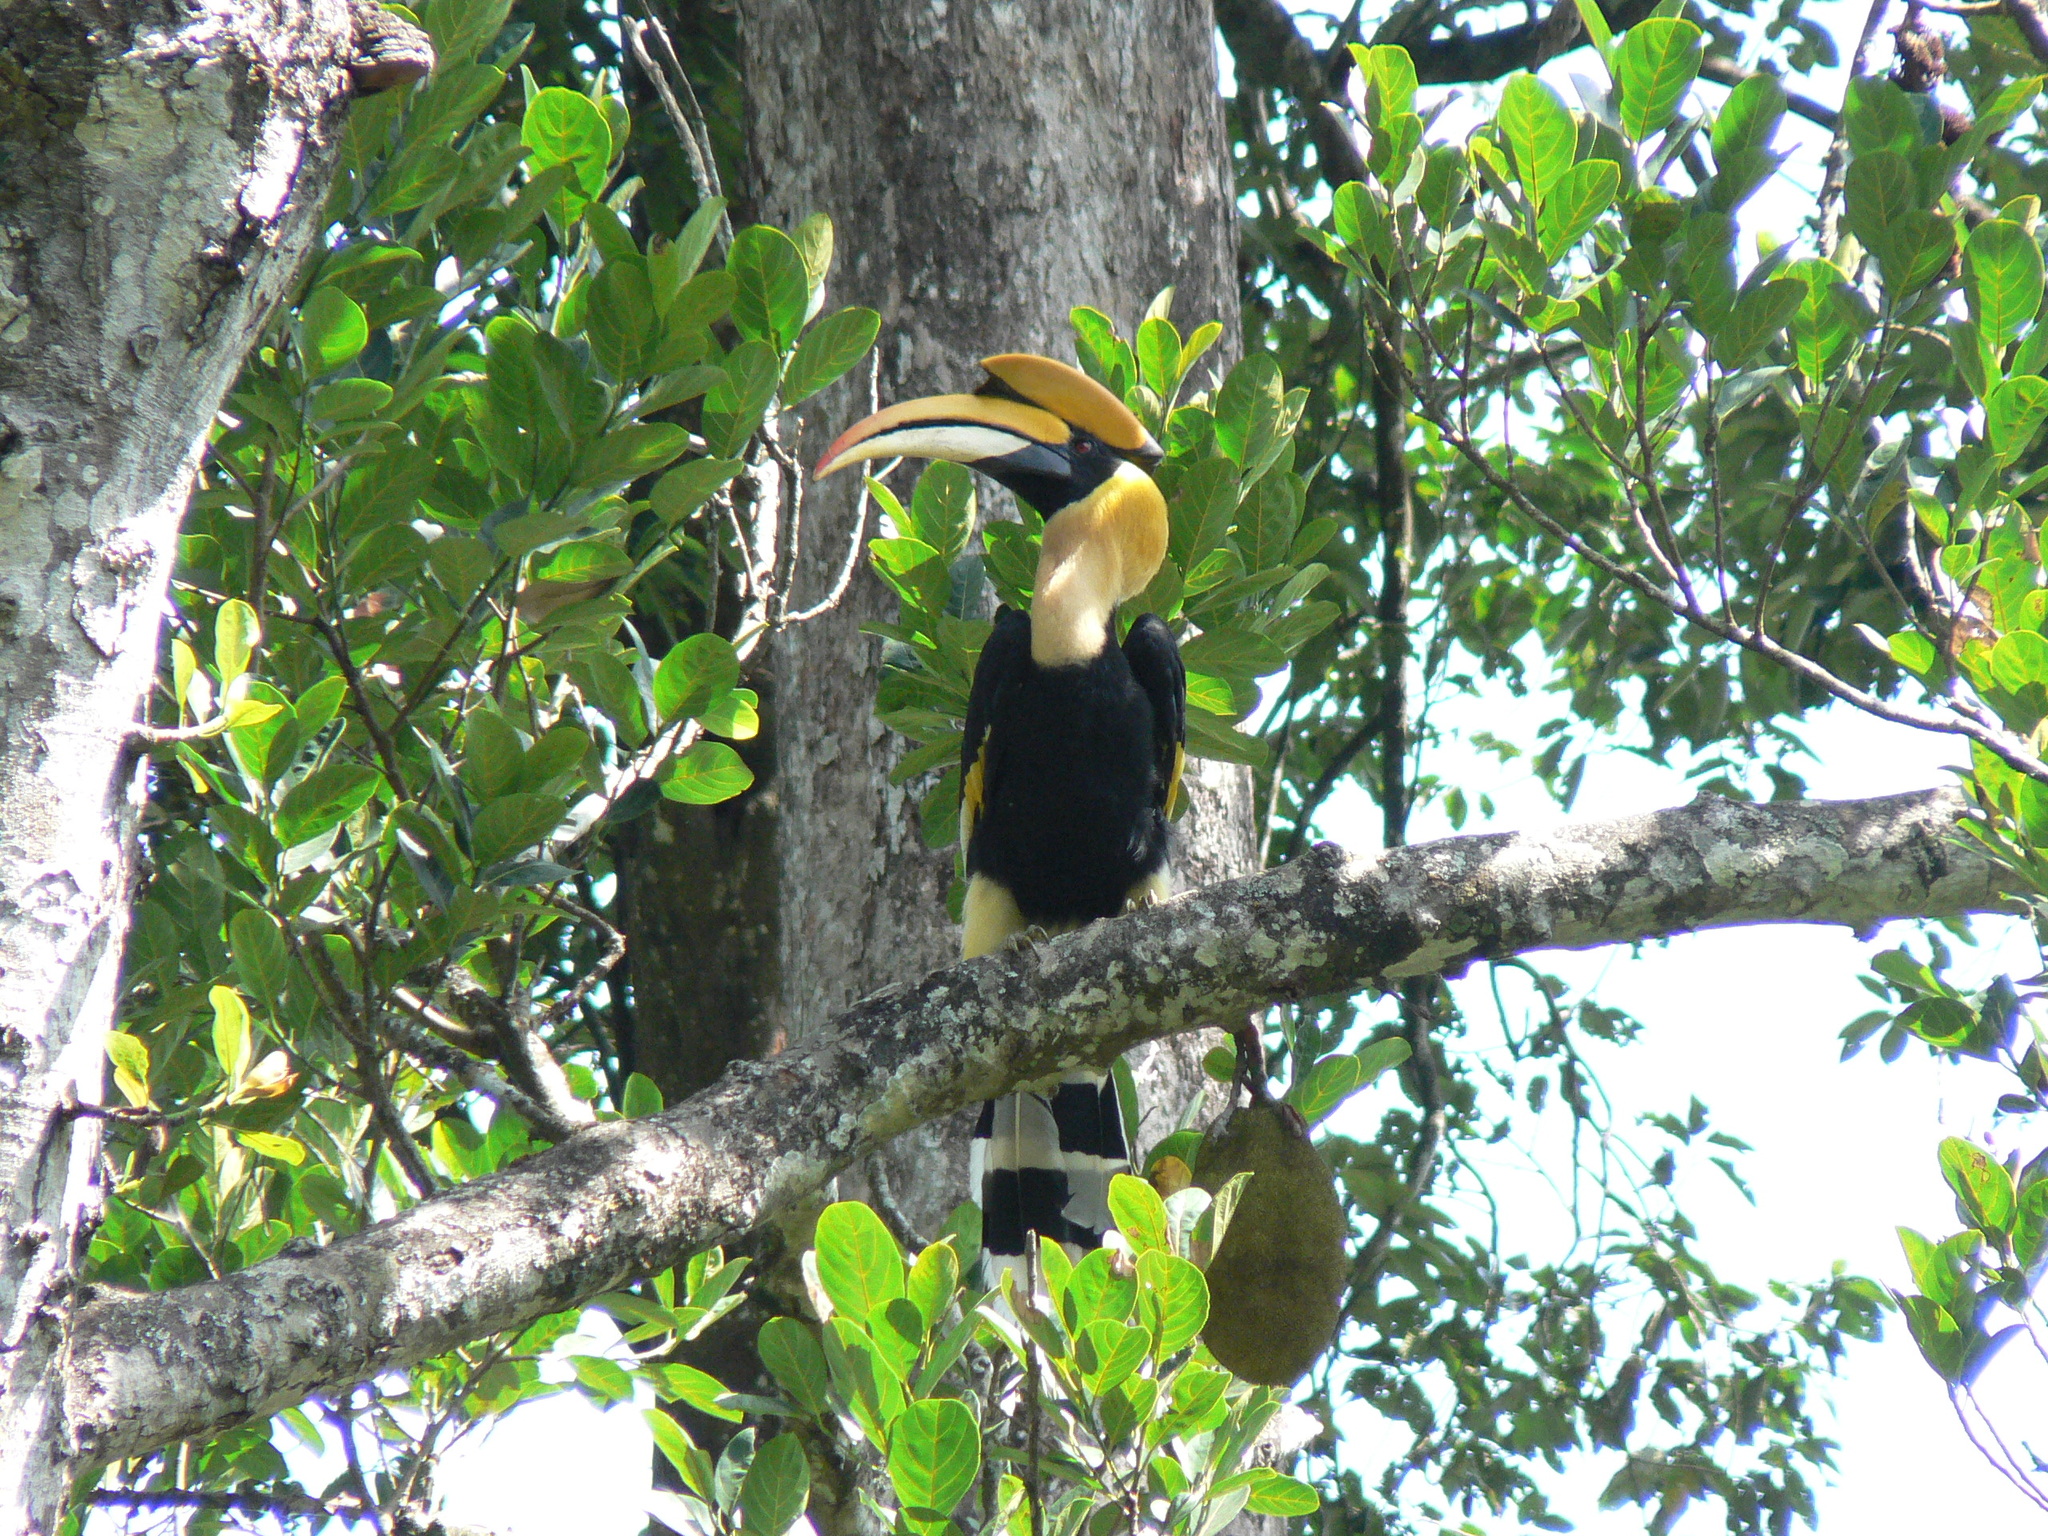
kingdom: Animalia
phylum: Chordata
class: Aves
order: Bucerotiformes
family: Bucerotidae
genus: Buceros
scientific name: Buceros bicornis
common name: Great hornbill
